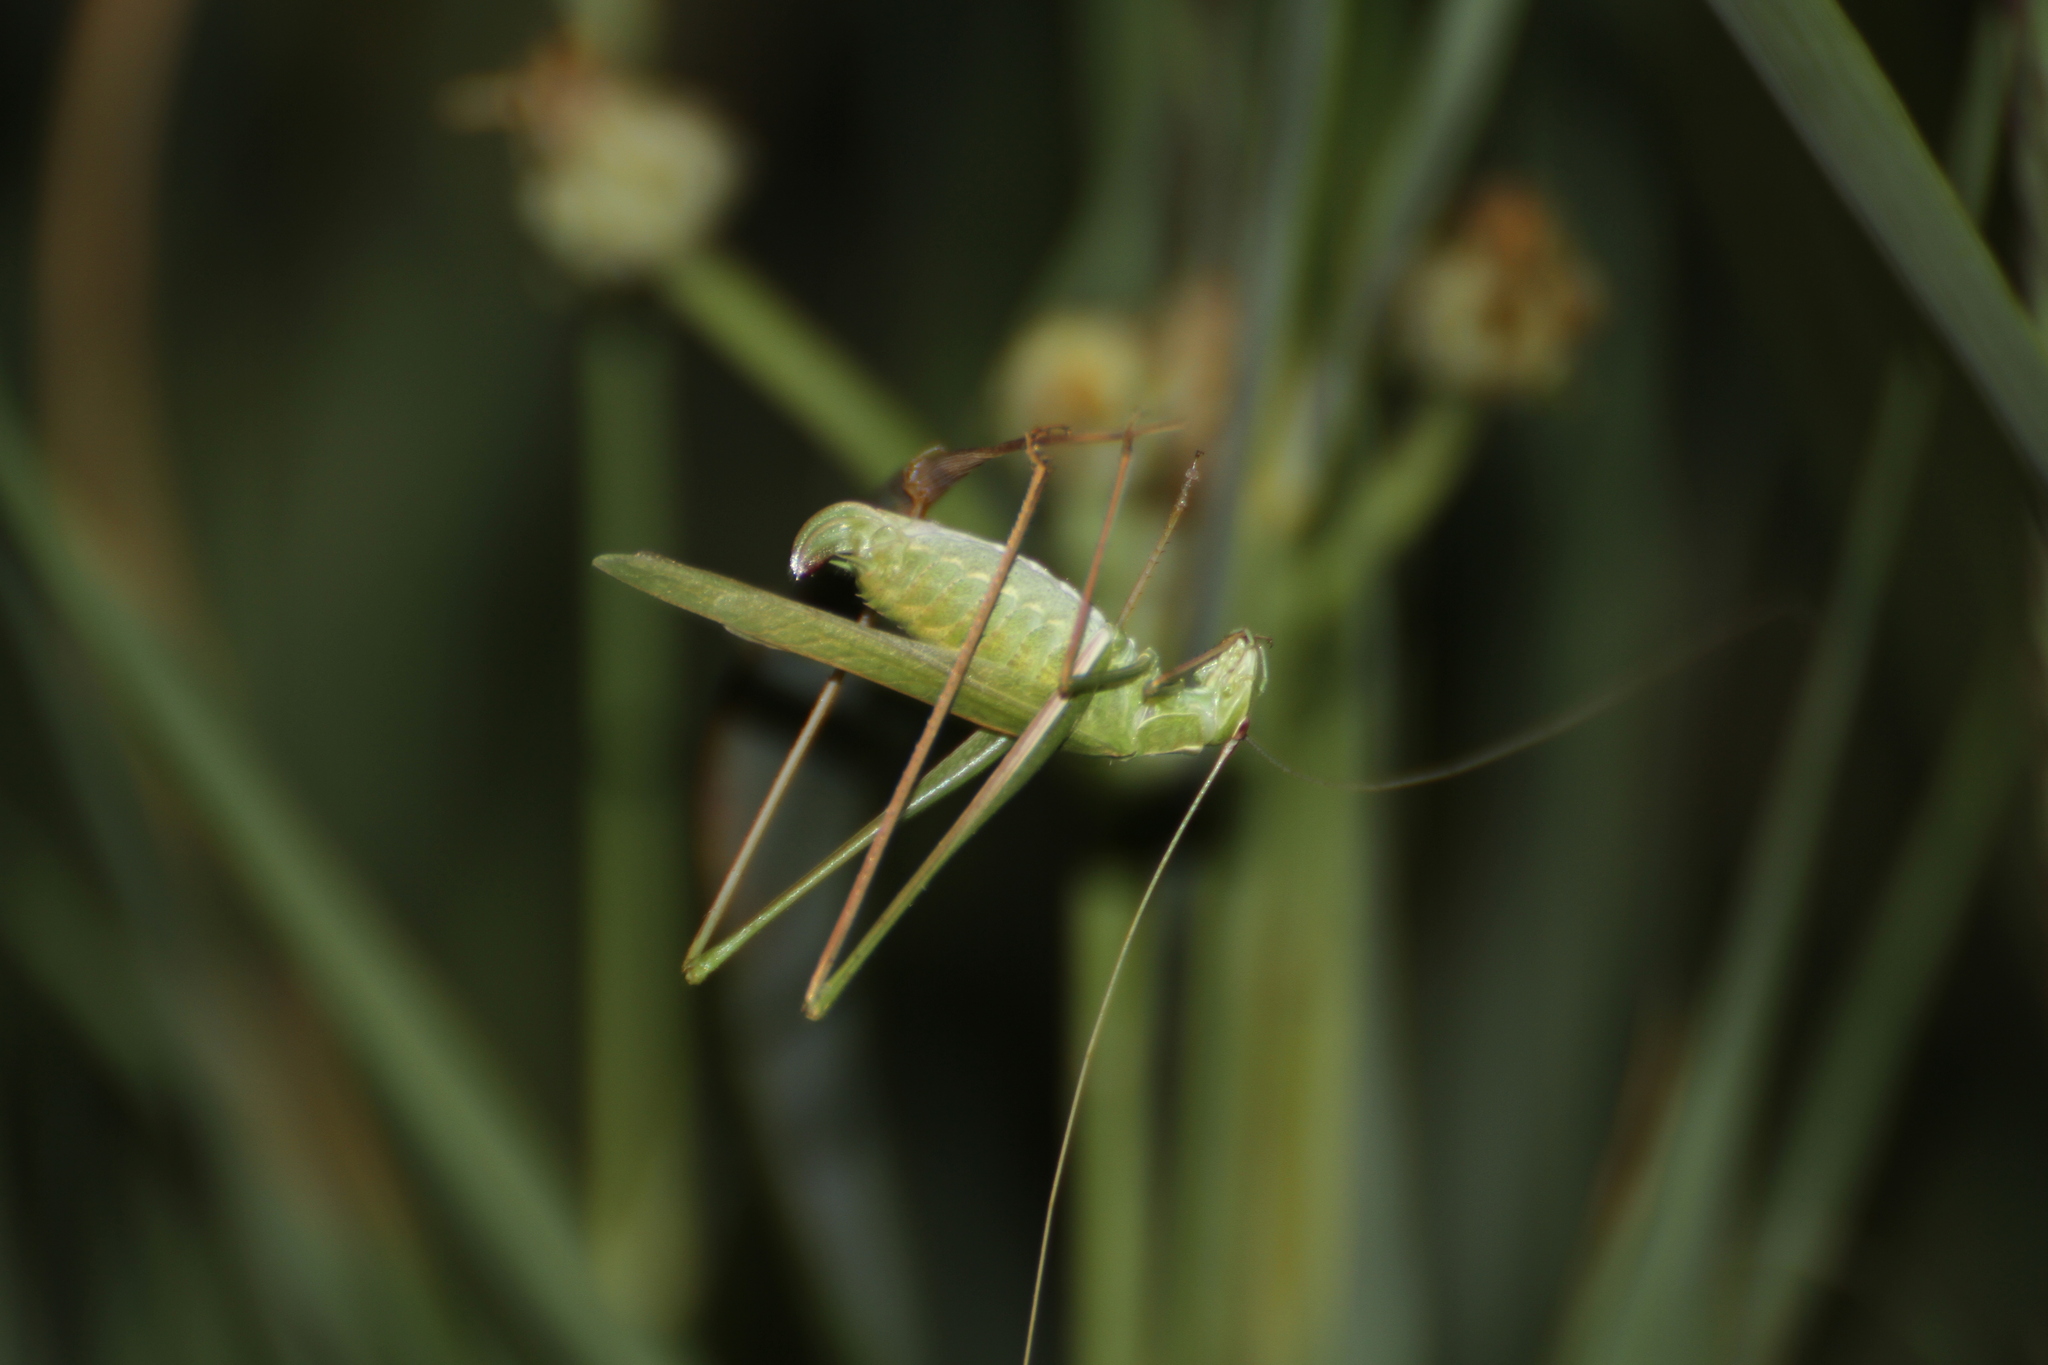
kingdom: Animalia
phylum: Arthropoda
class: Insecta
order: Orthoptera
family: Tettigoniidae
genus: Tylopsis
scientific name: Tylopsis lilifolia
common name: Lily bush-cricket
